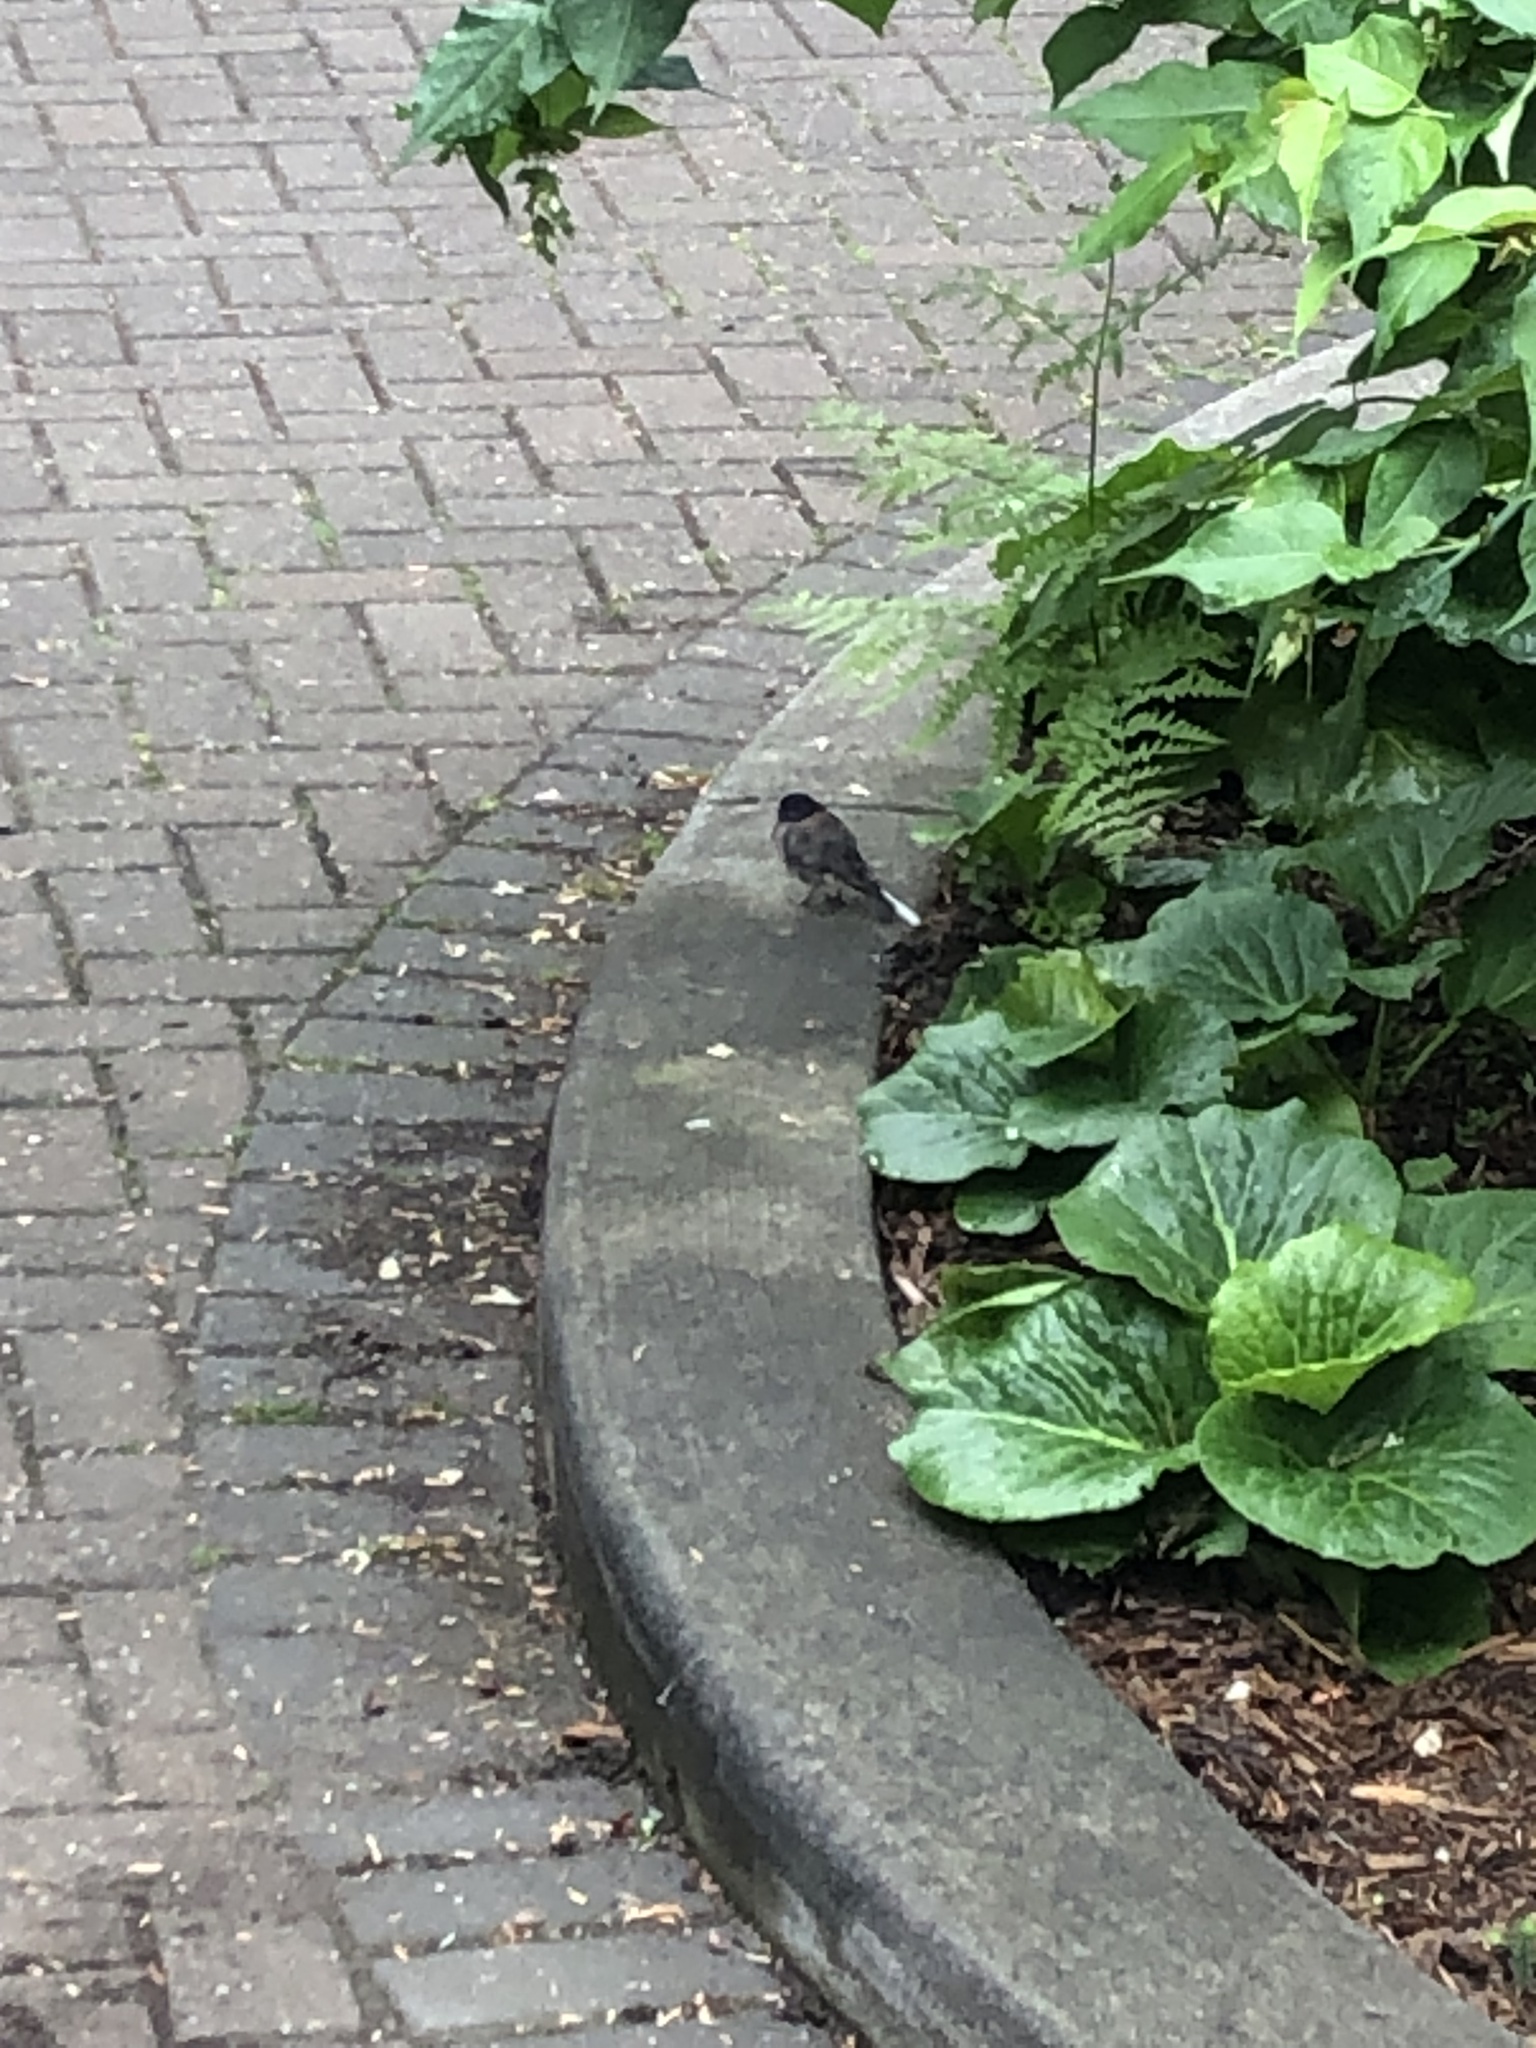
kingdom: Animalia
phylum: Chordata
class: Aves
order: Passeriformes
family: Passerellidae
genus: Junco
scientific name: Junco hyemalis
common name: Dark-eyed junco
